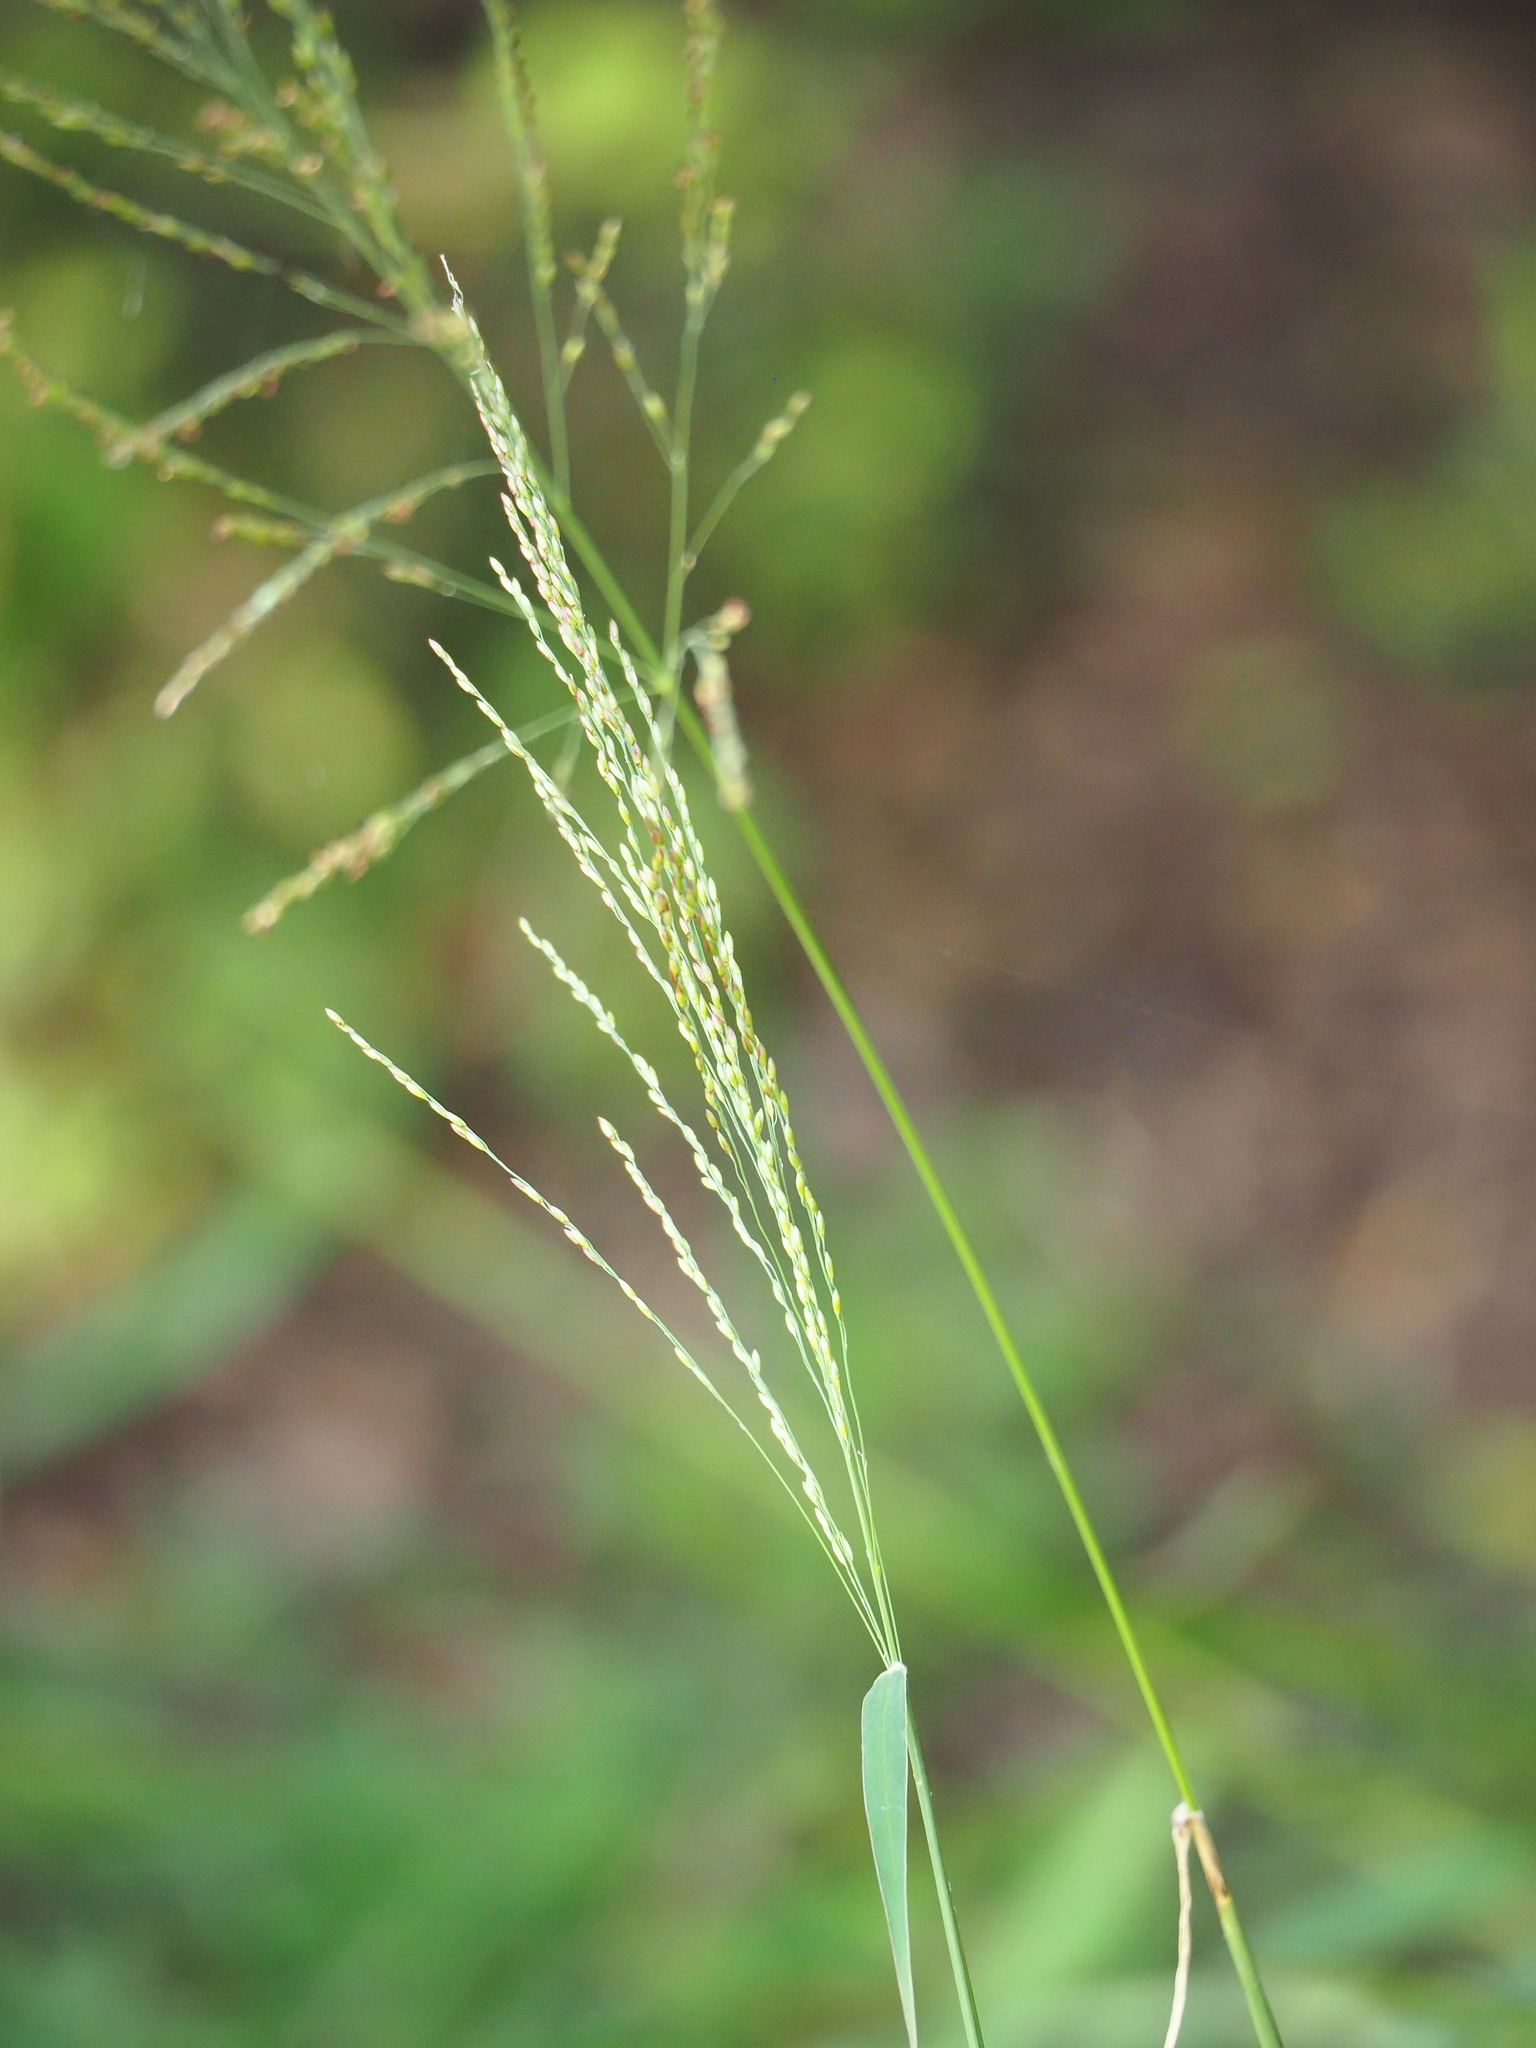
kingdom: Plantae
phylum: Tracheophyta
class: Liliopsida
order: Poales
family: Poaceae
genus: Megathyrsus
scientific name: Megathyrsus maximus
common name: Guineagrass
